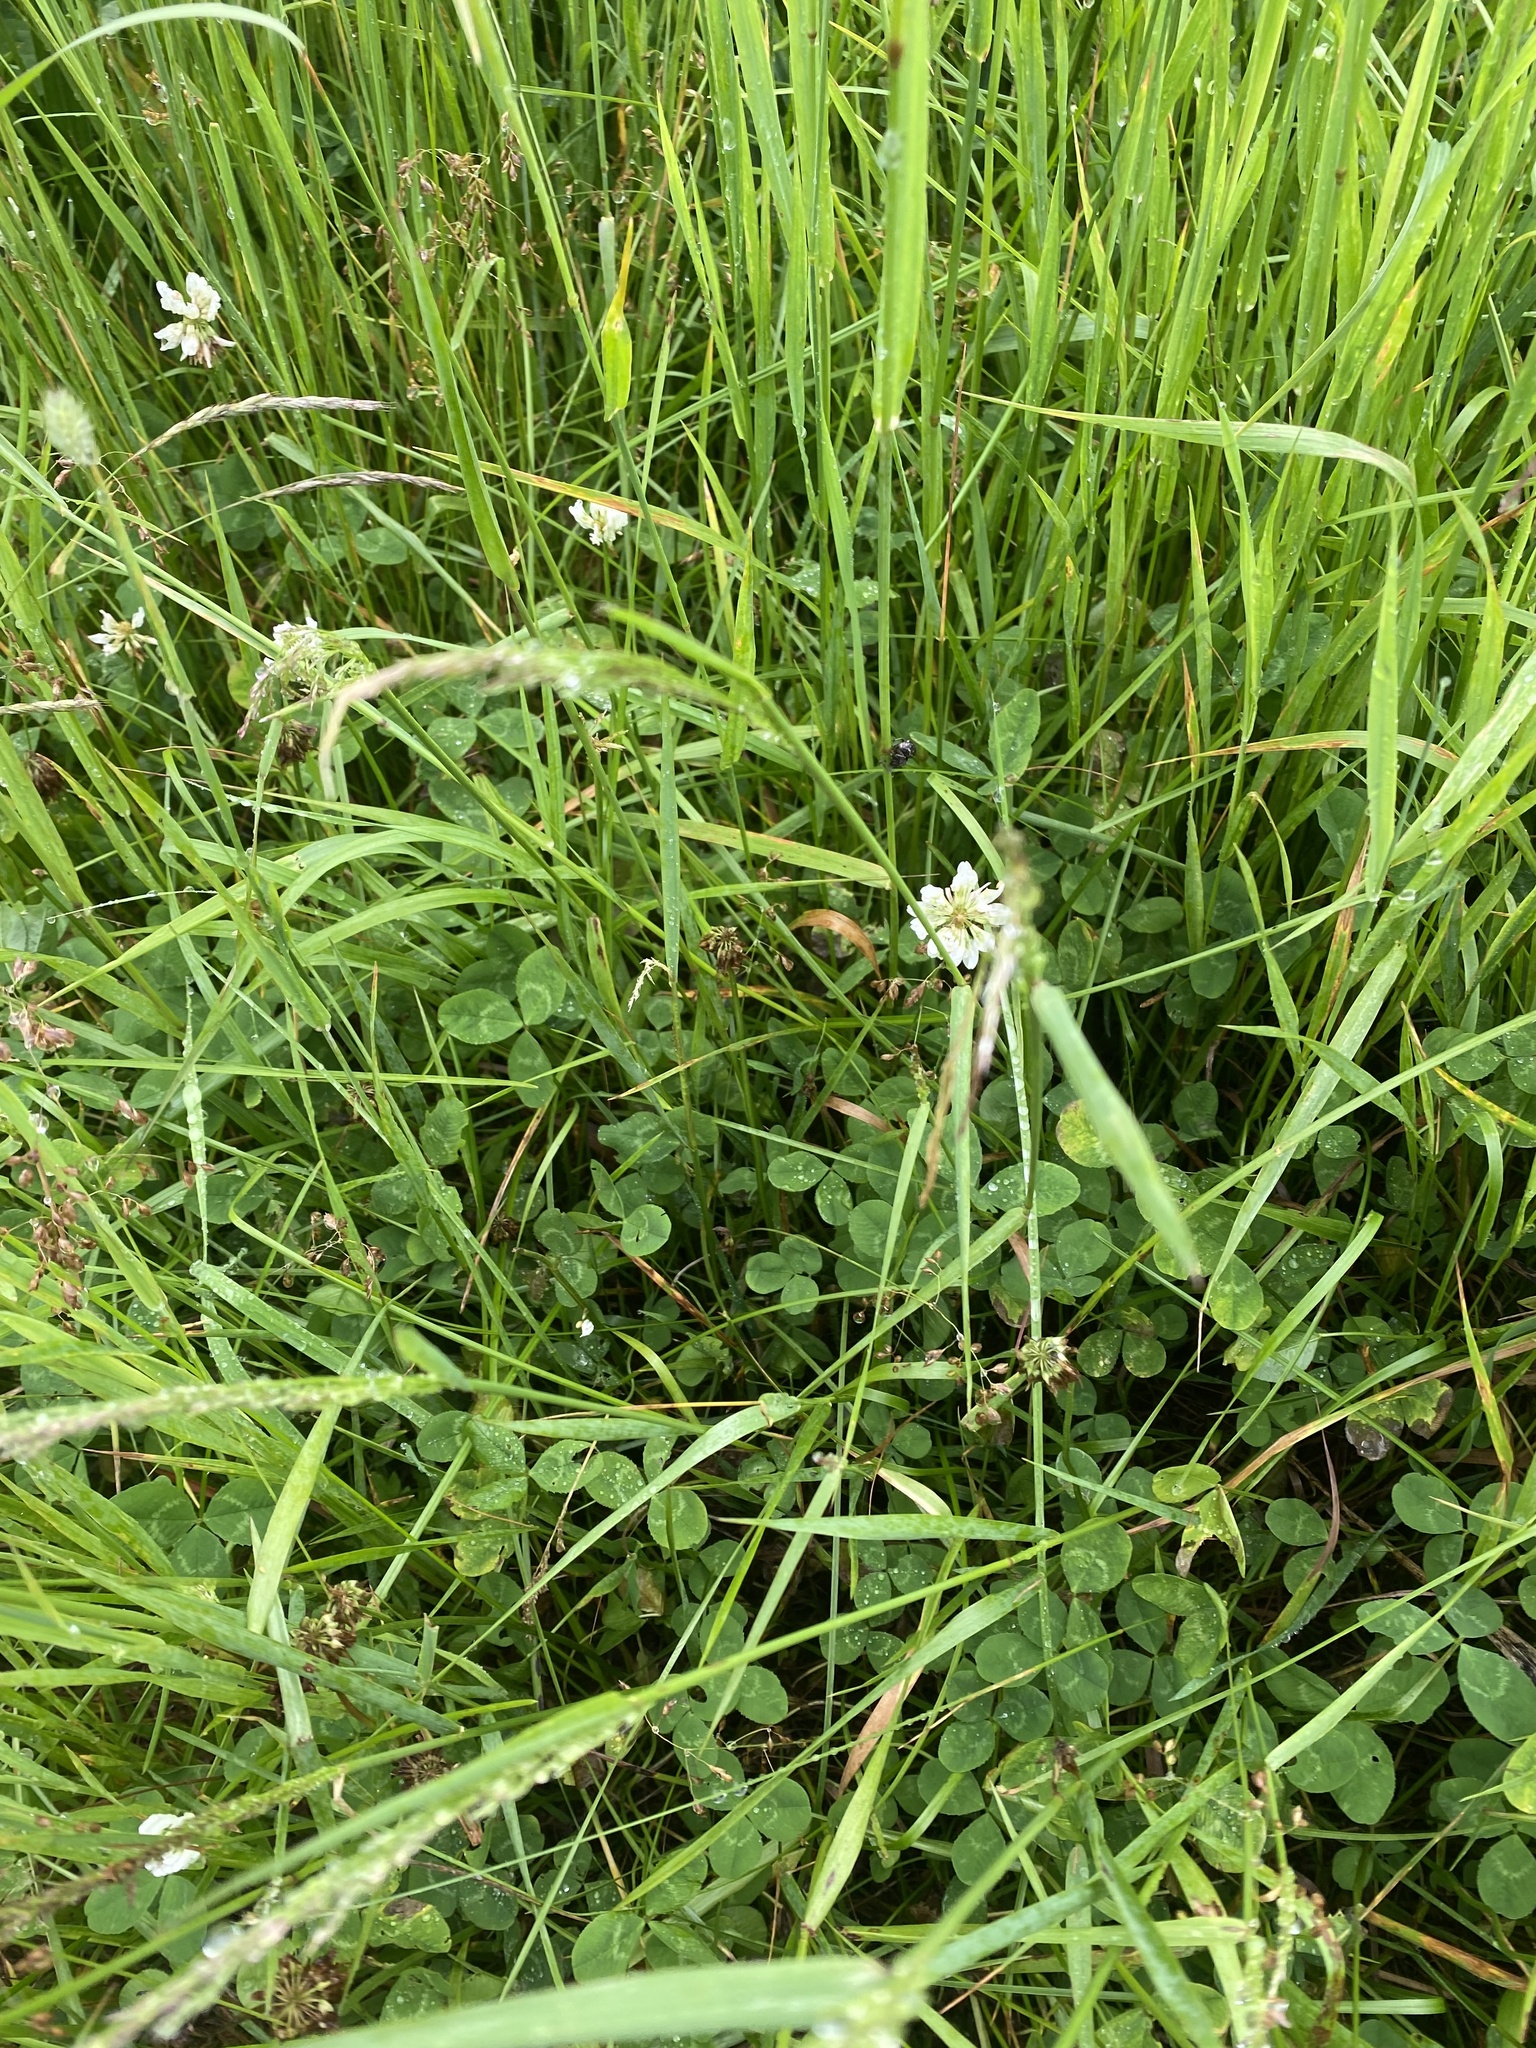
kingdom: Plantae
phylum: Tracheophyta
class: Magnoliopsida
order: Fabales
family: Fabaceae
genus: Trifolium
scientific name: Trifolium repens
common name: White clover
